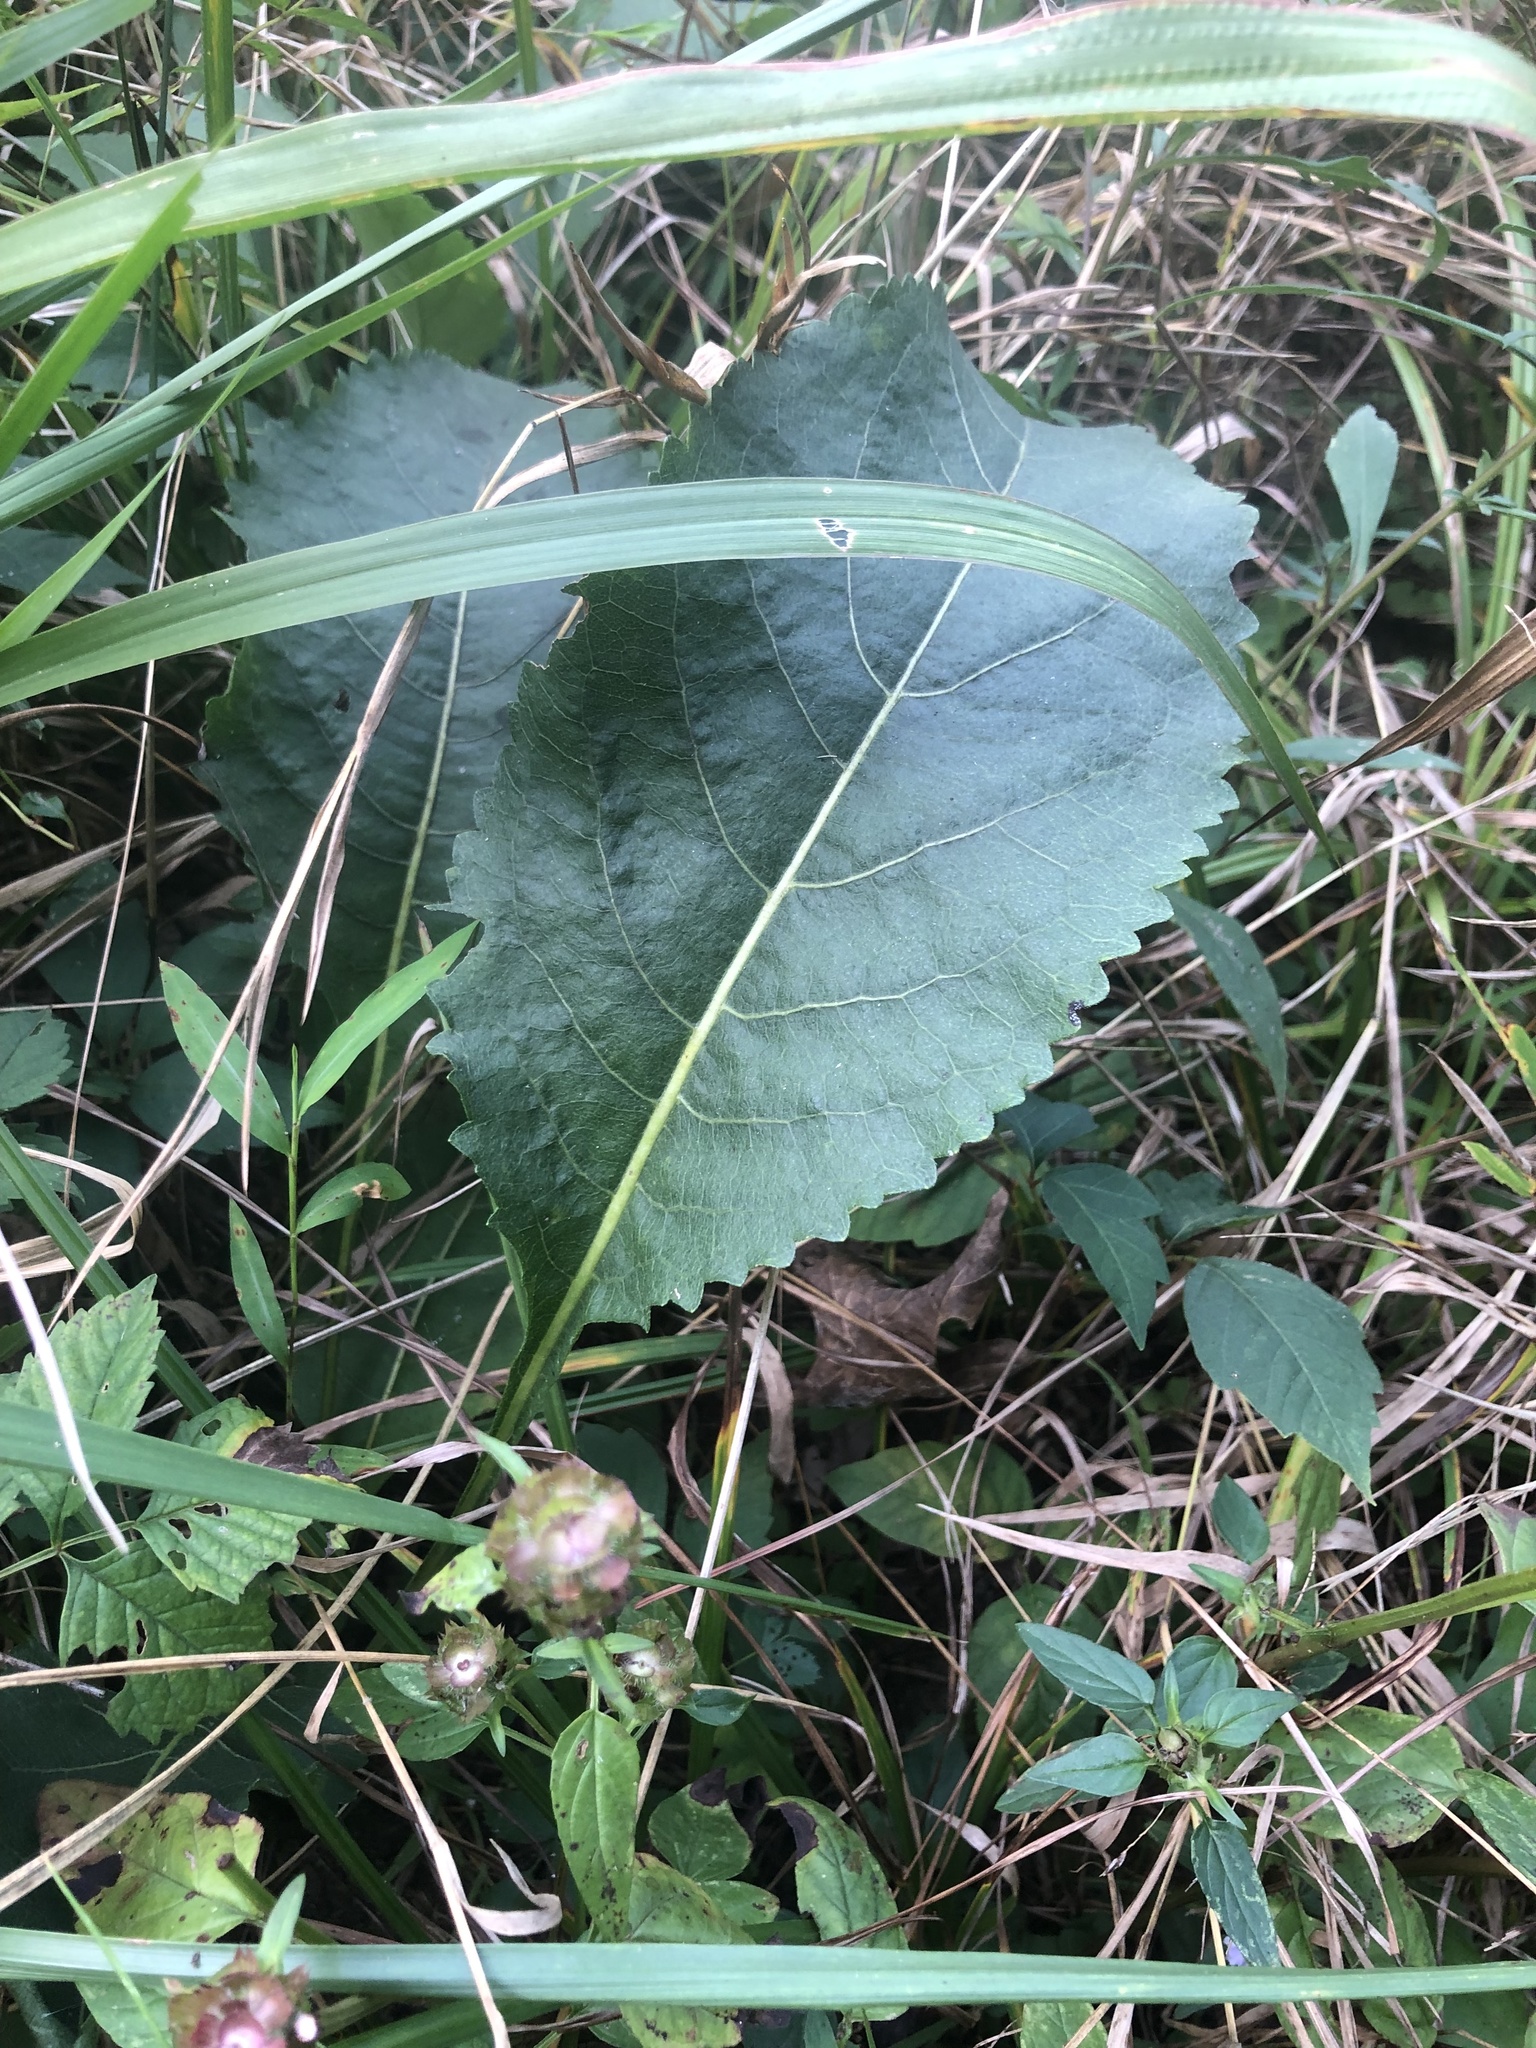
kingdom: Plantae
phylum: Tracheophyta
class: Magnoliopsida
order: Asterales
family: Asteraceae
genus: Parthenium
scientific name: Parthenium integrifolium
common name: American feverfew
